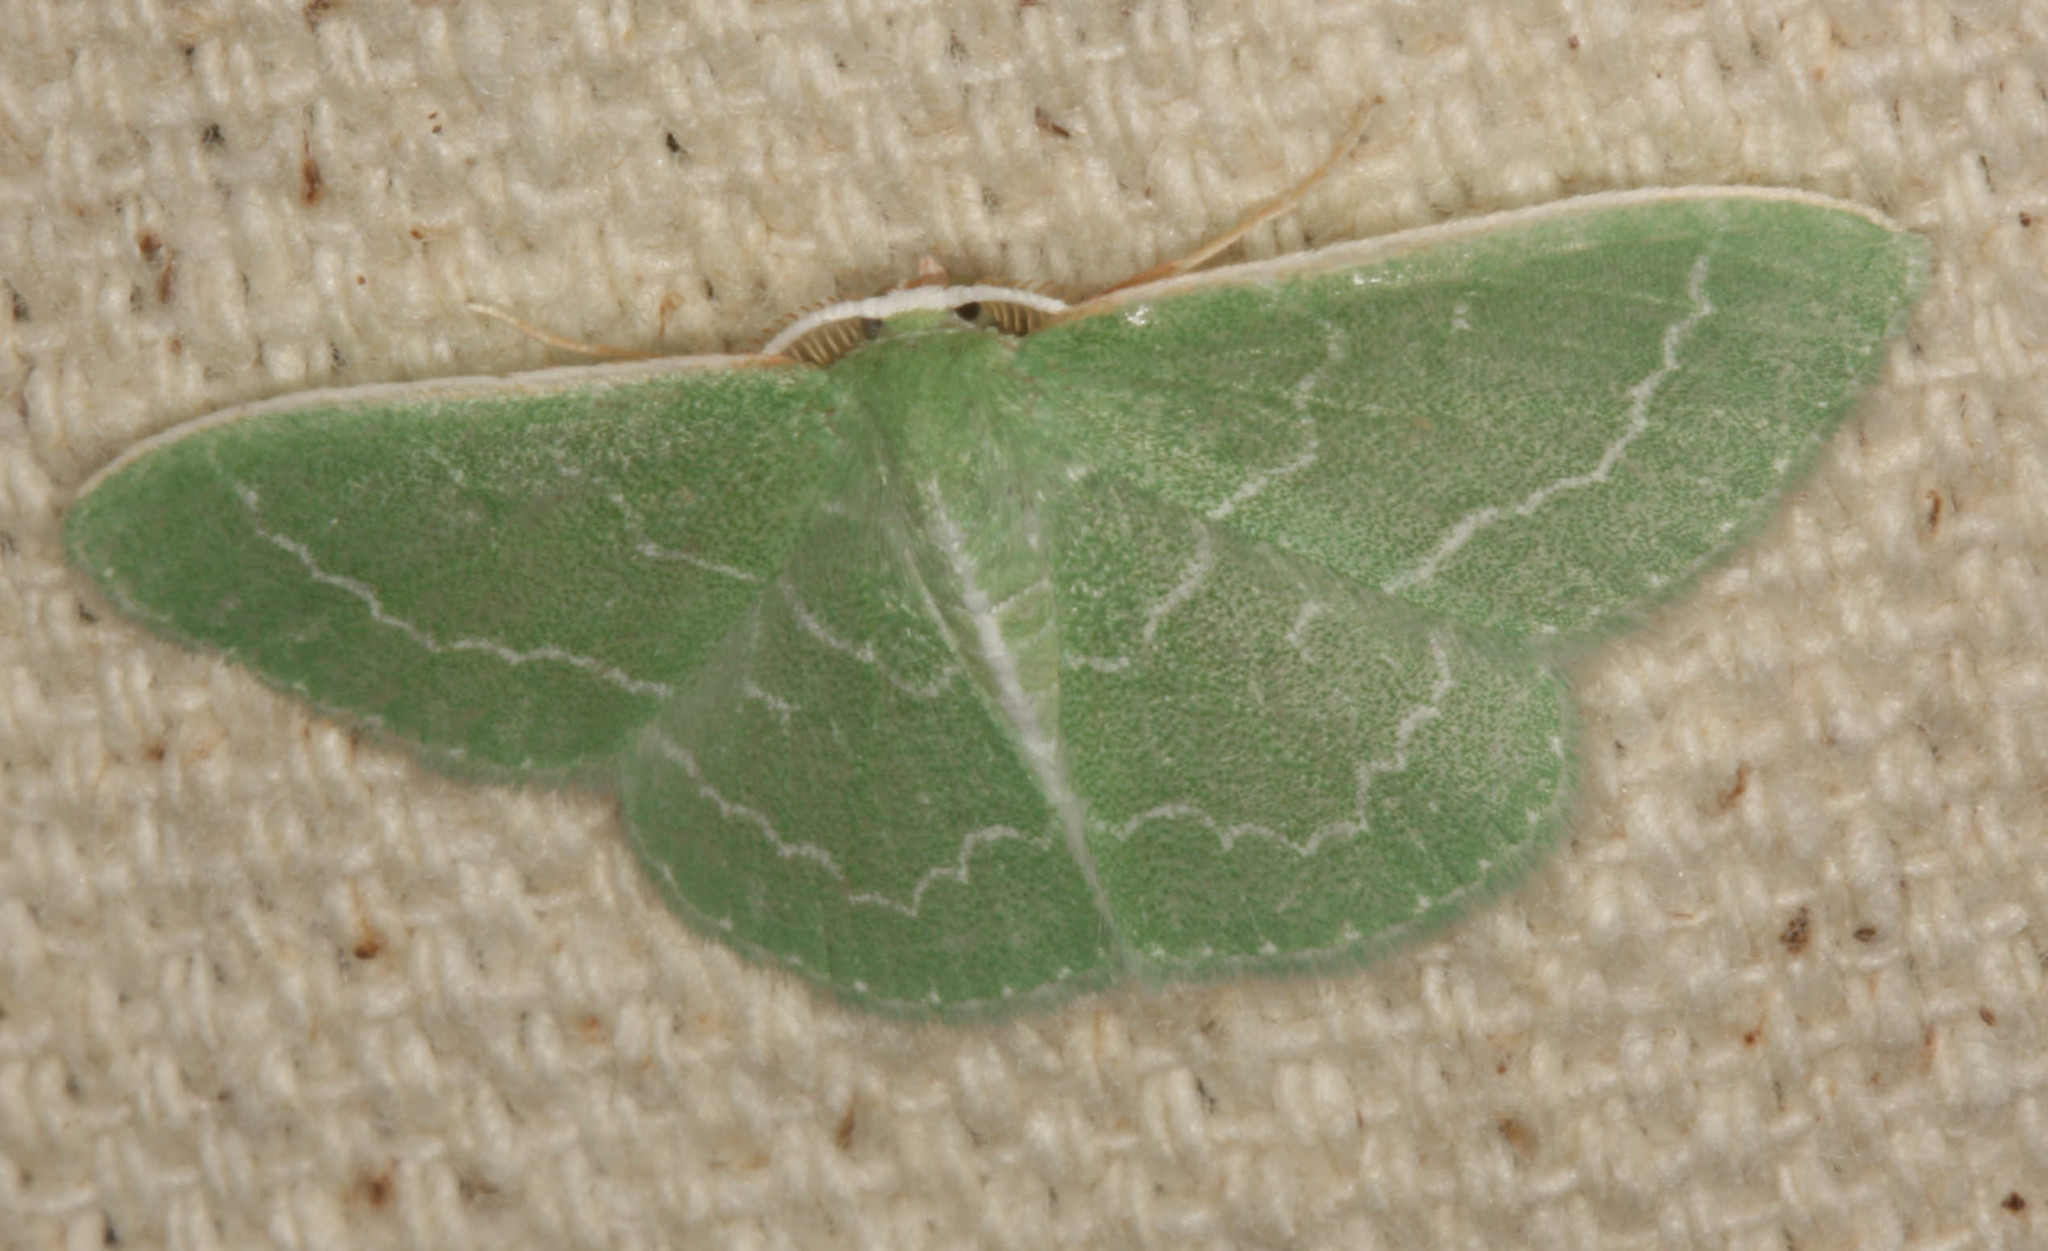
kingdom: Animalia
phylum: Arthropoda
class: Insecta
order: Lepidoptera
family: Geometridae
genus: Synchlora
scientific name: Synchlora aerata
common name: Wavy-lined emerald
